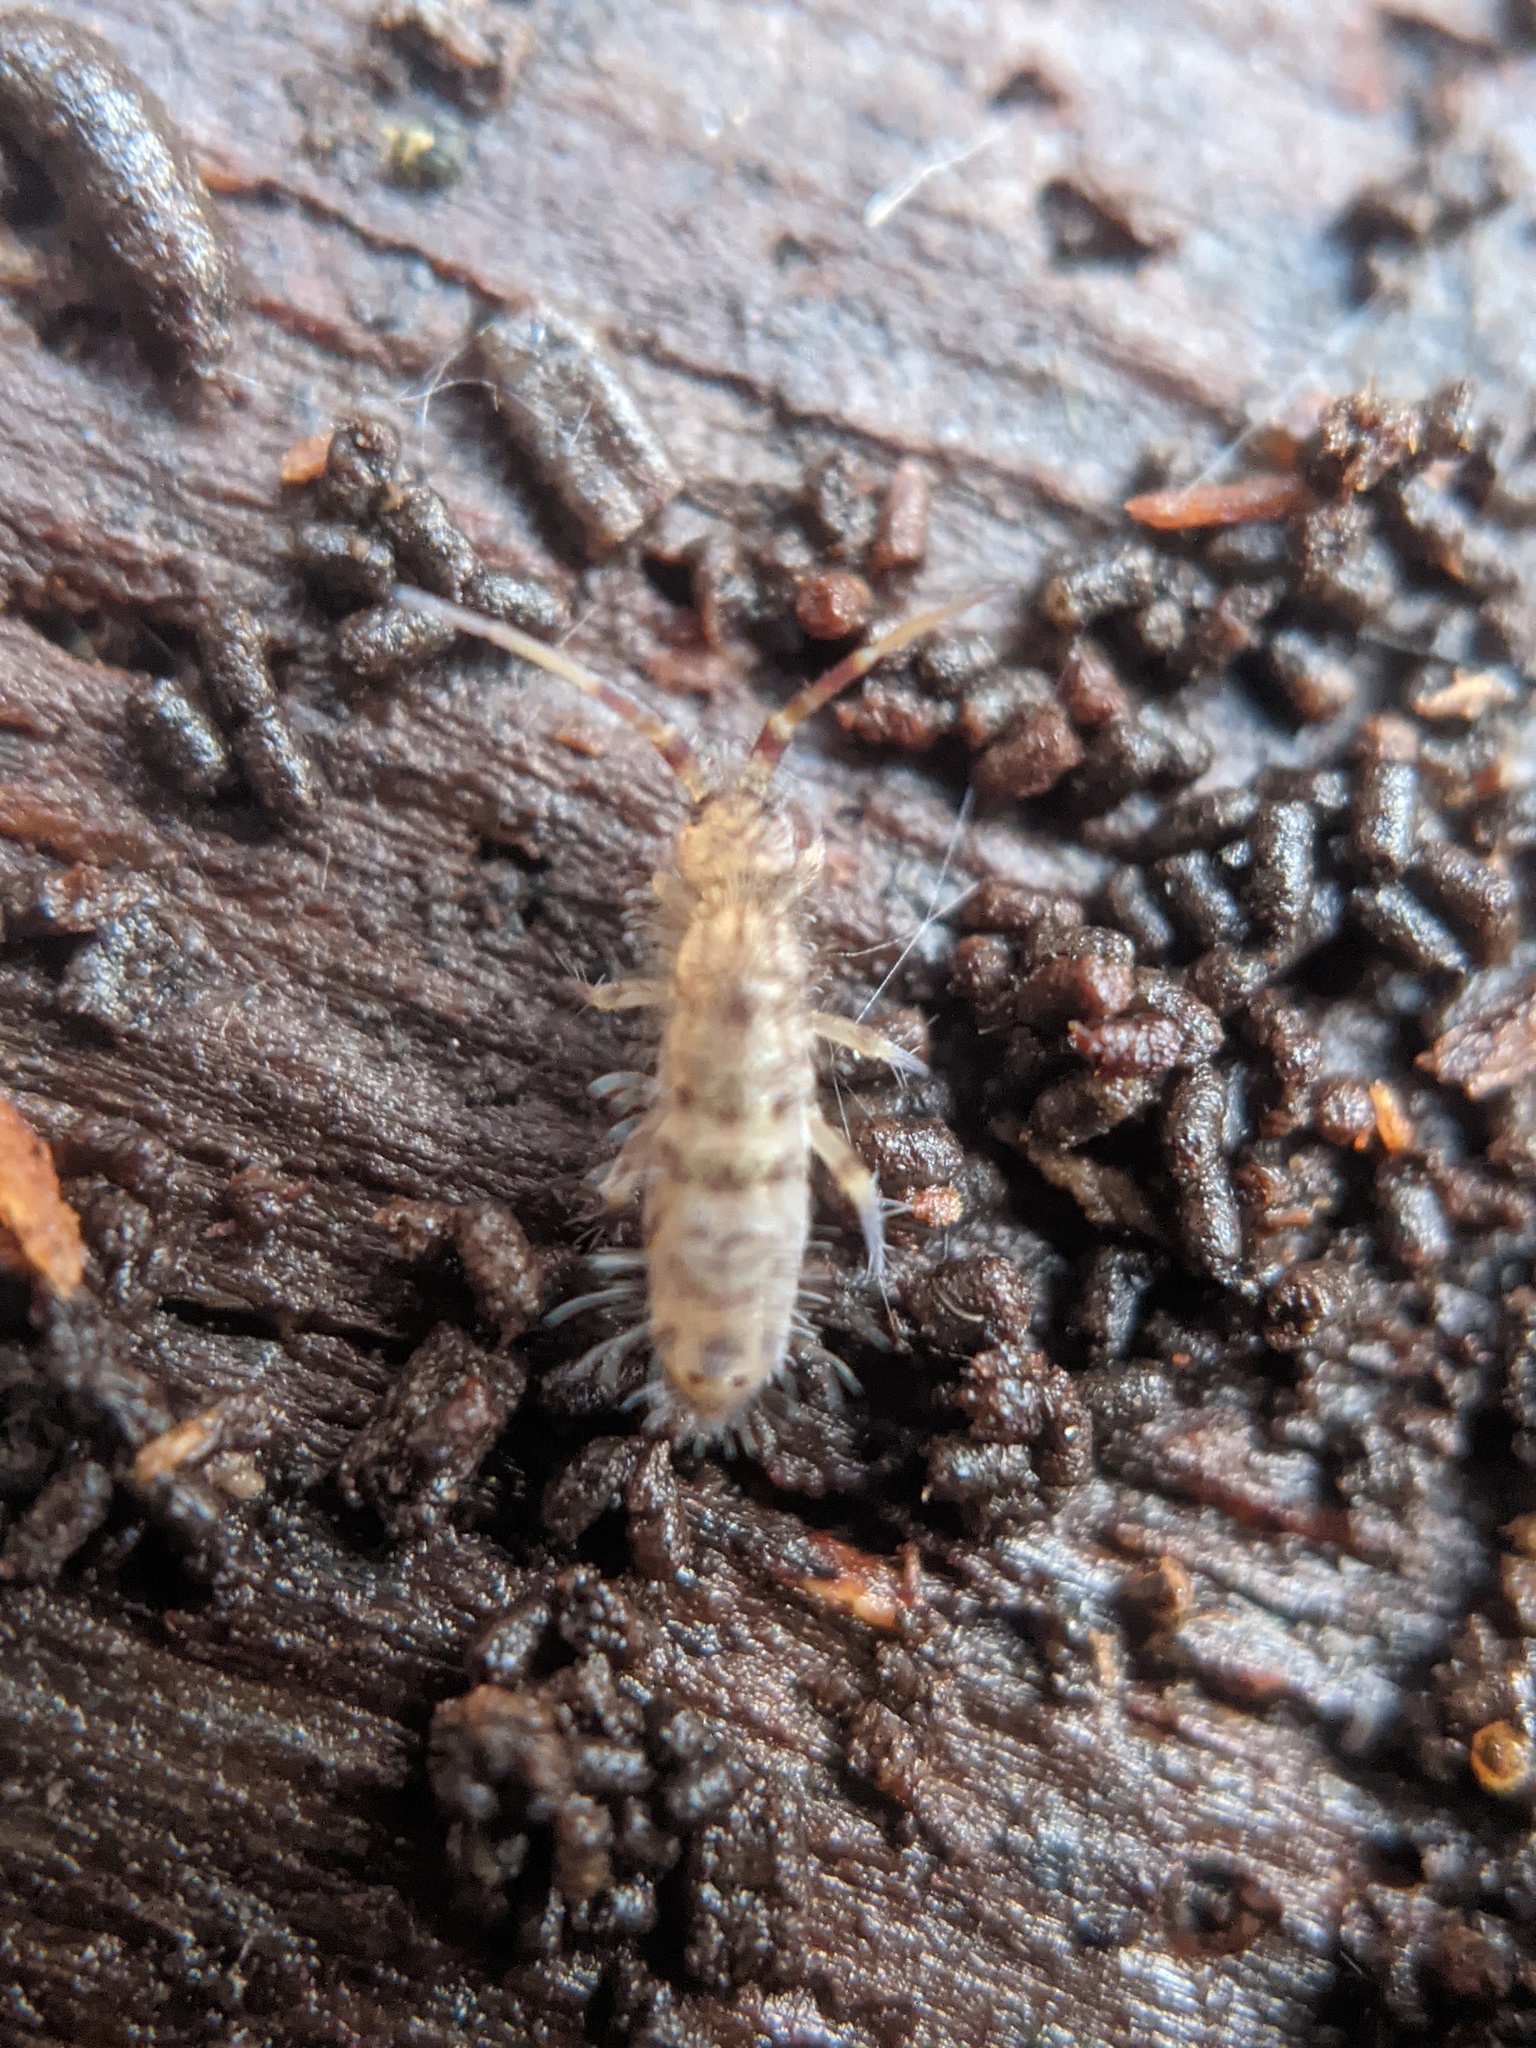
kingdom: Animalia
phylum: Arthropoda
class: Collembola
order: Entomobryomorpha
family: Orchesellidae
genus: Orchesella
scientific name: Orchesella villosa
